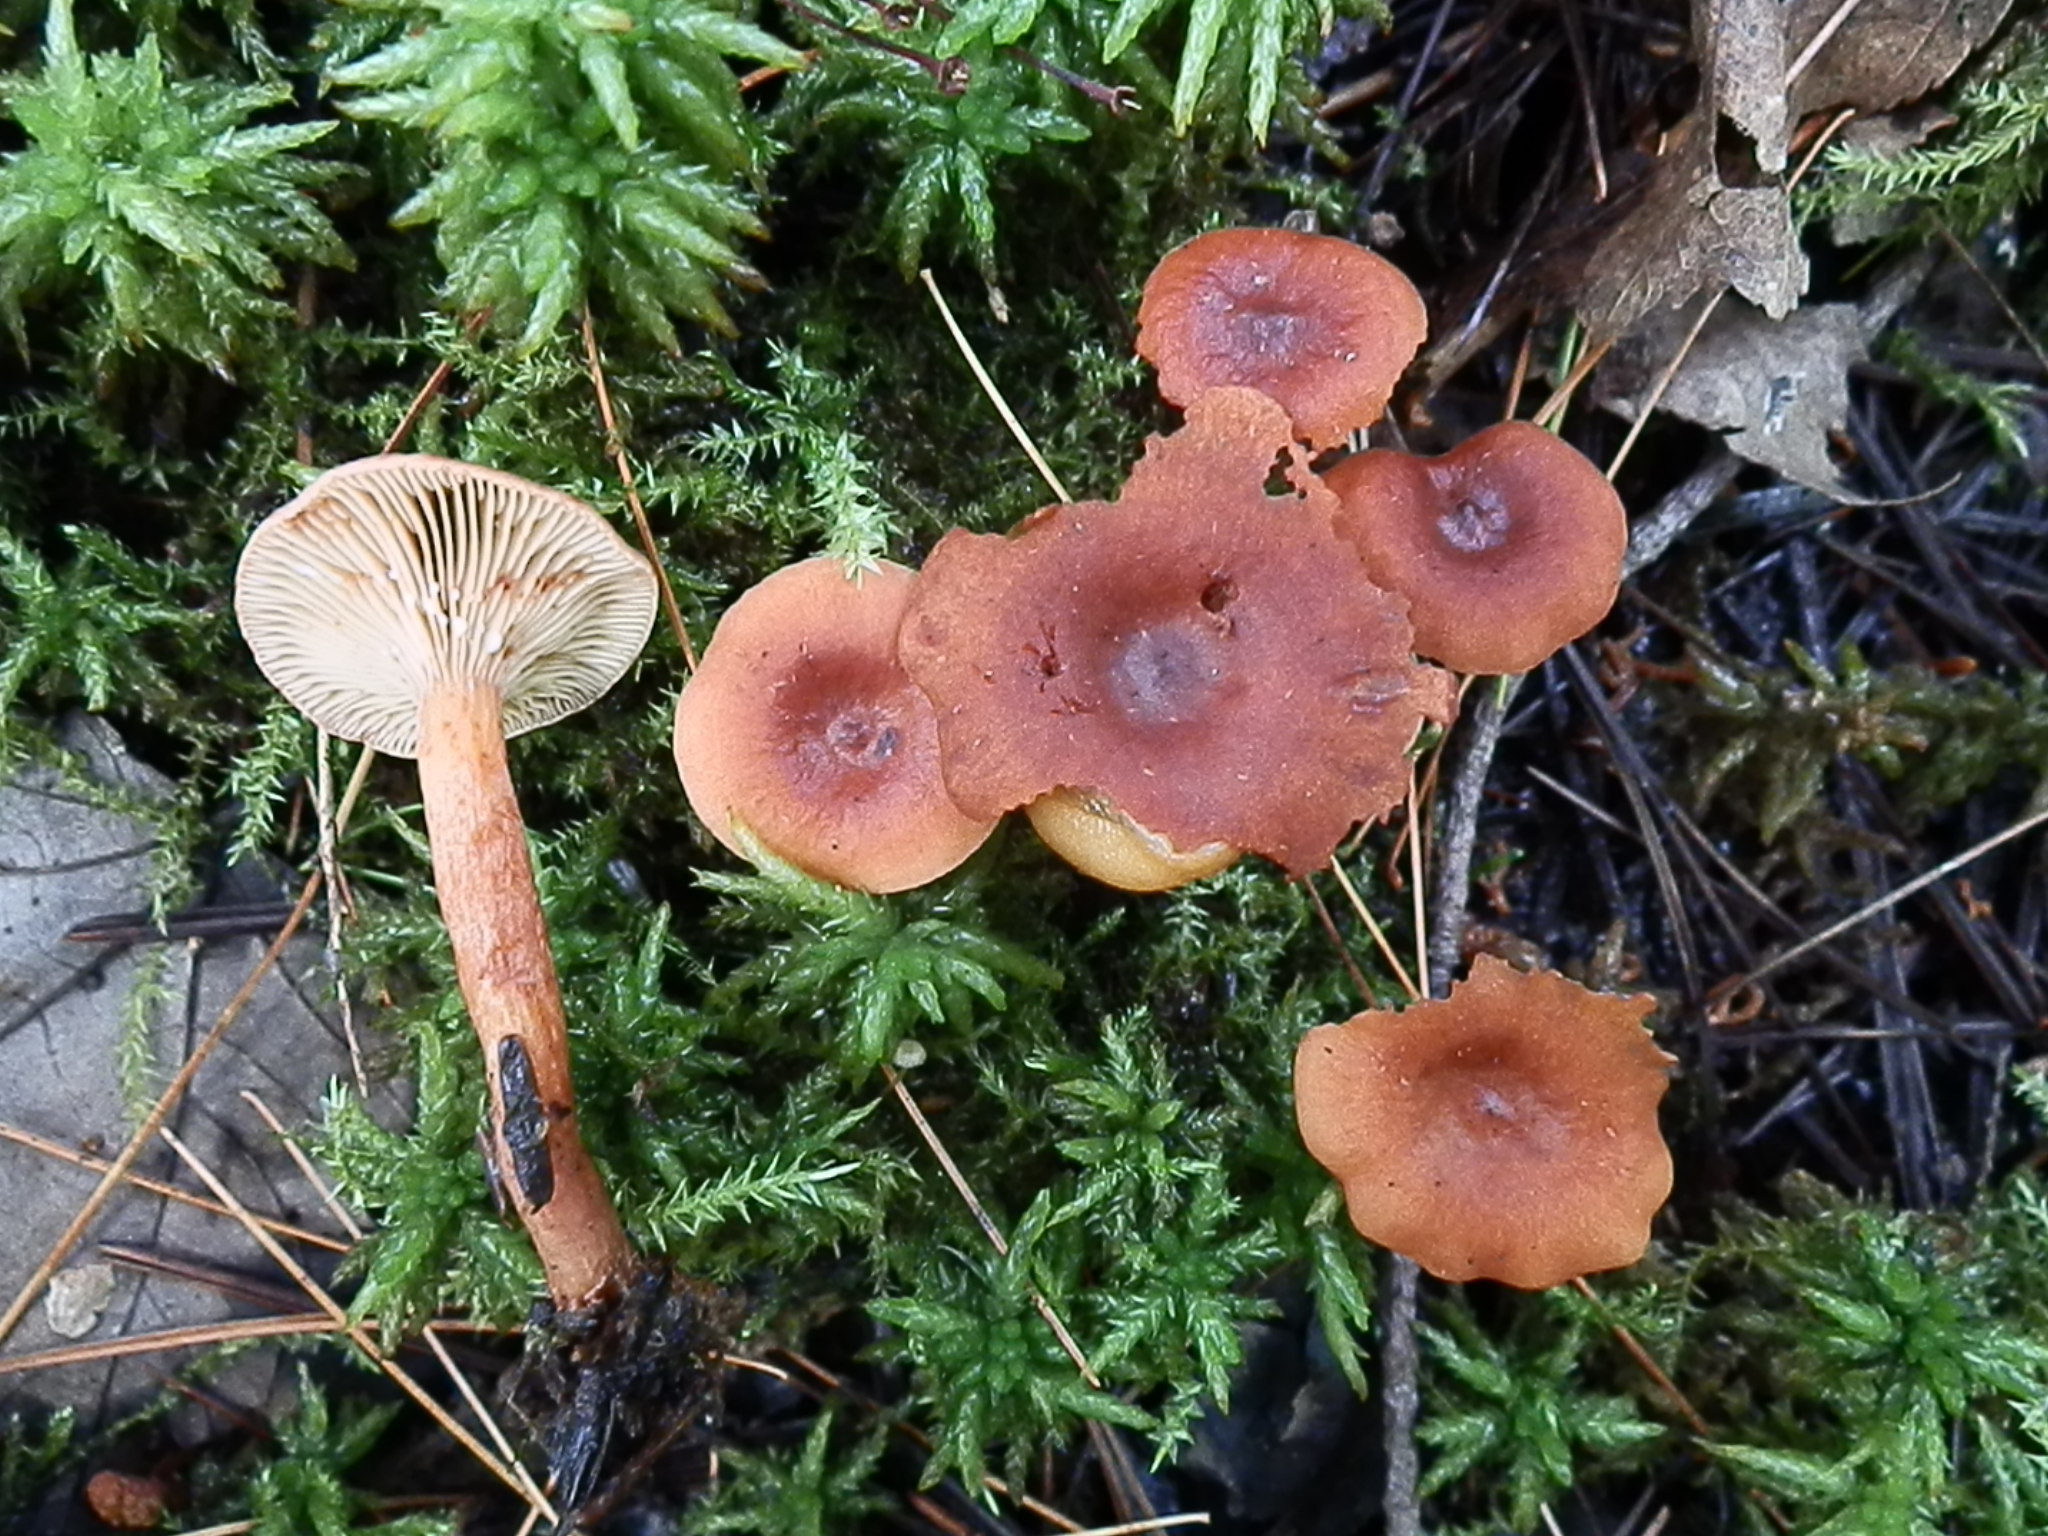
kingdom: Fungi
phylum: Basidiomycota
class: Agaricomycetes
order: Russulales
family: Russulaceae
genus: Lactarius
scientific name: Lactarius neotabidus
